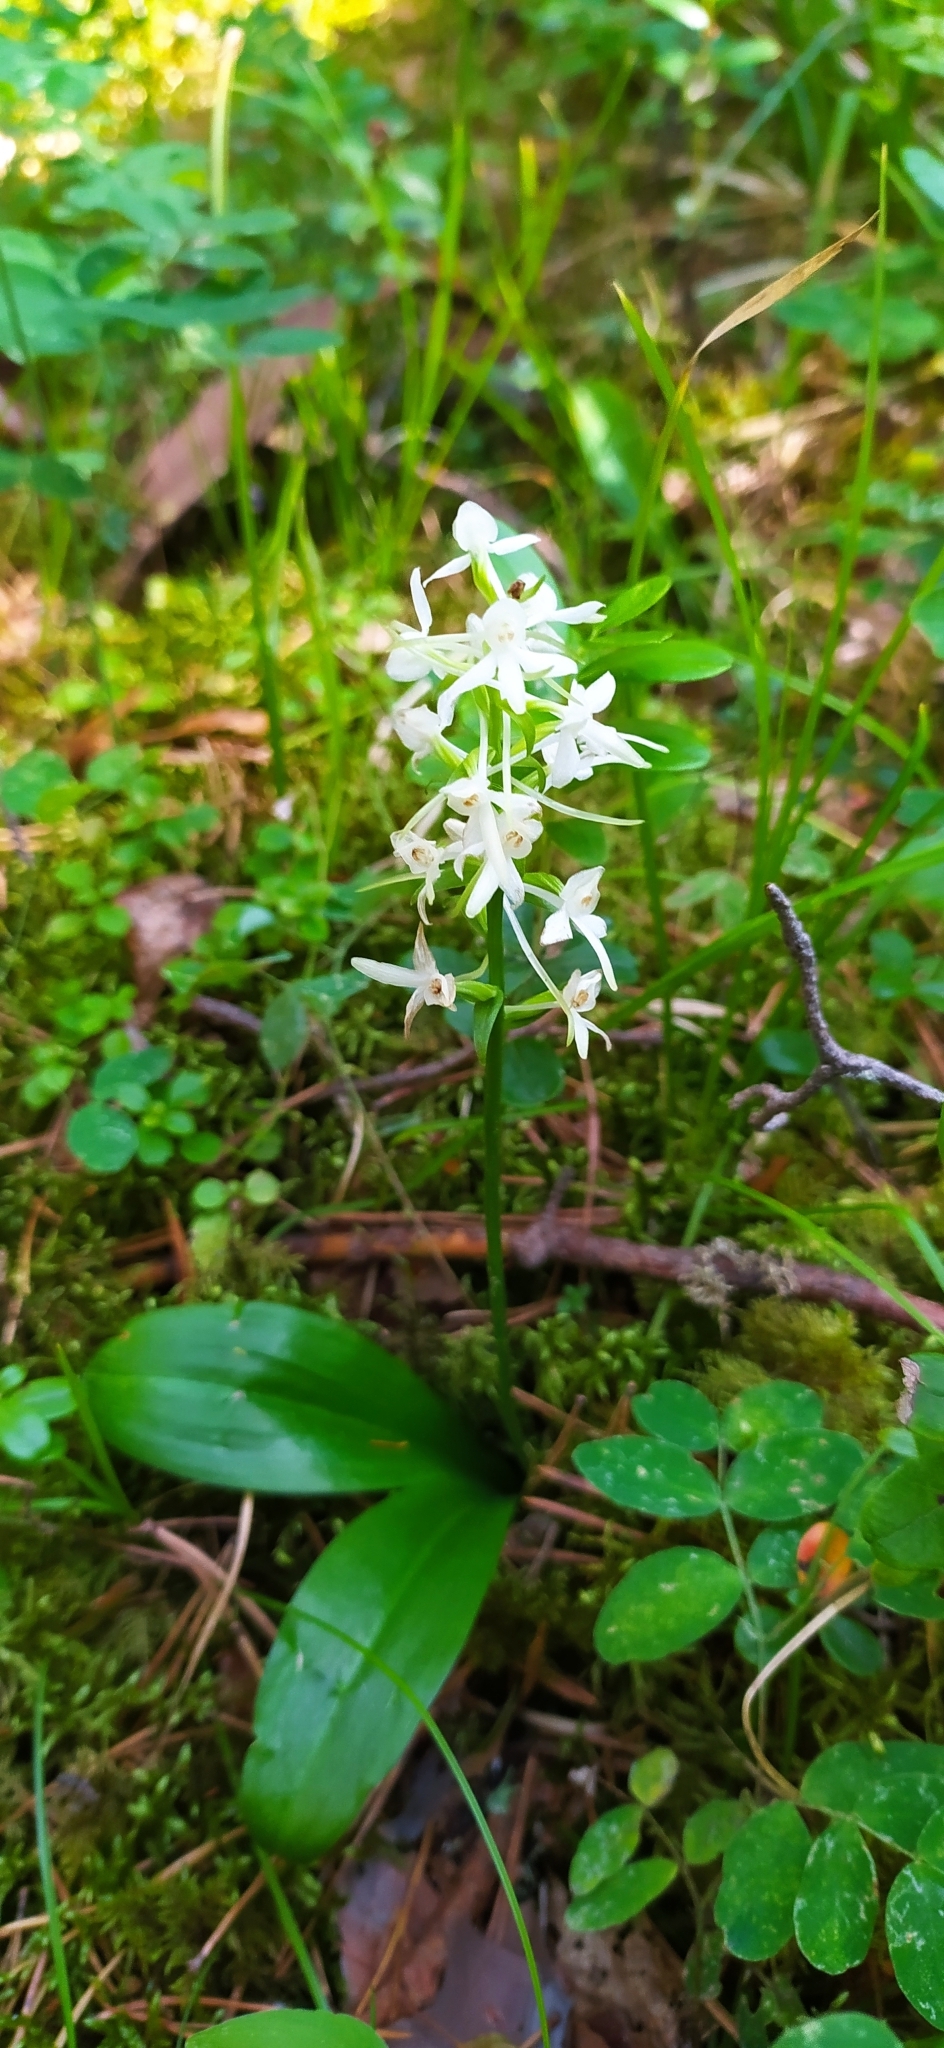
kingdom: Plantae
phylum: Tracheophyta
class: Liliopsida
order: Asparagales
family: Orchidaceae
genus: Platanthera
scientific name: Platanthera bifolia
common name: Lesser butterfly-orchid
